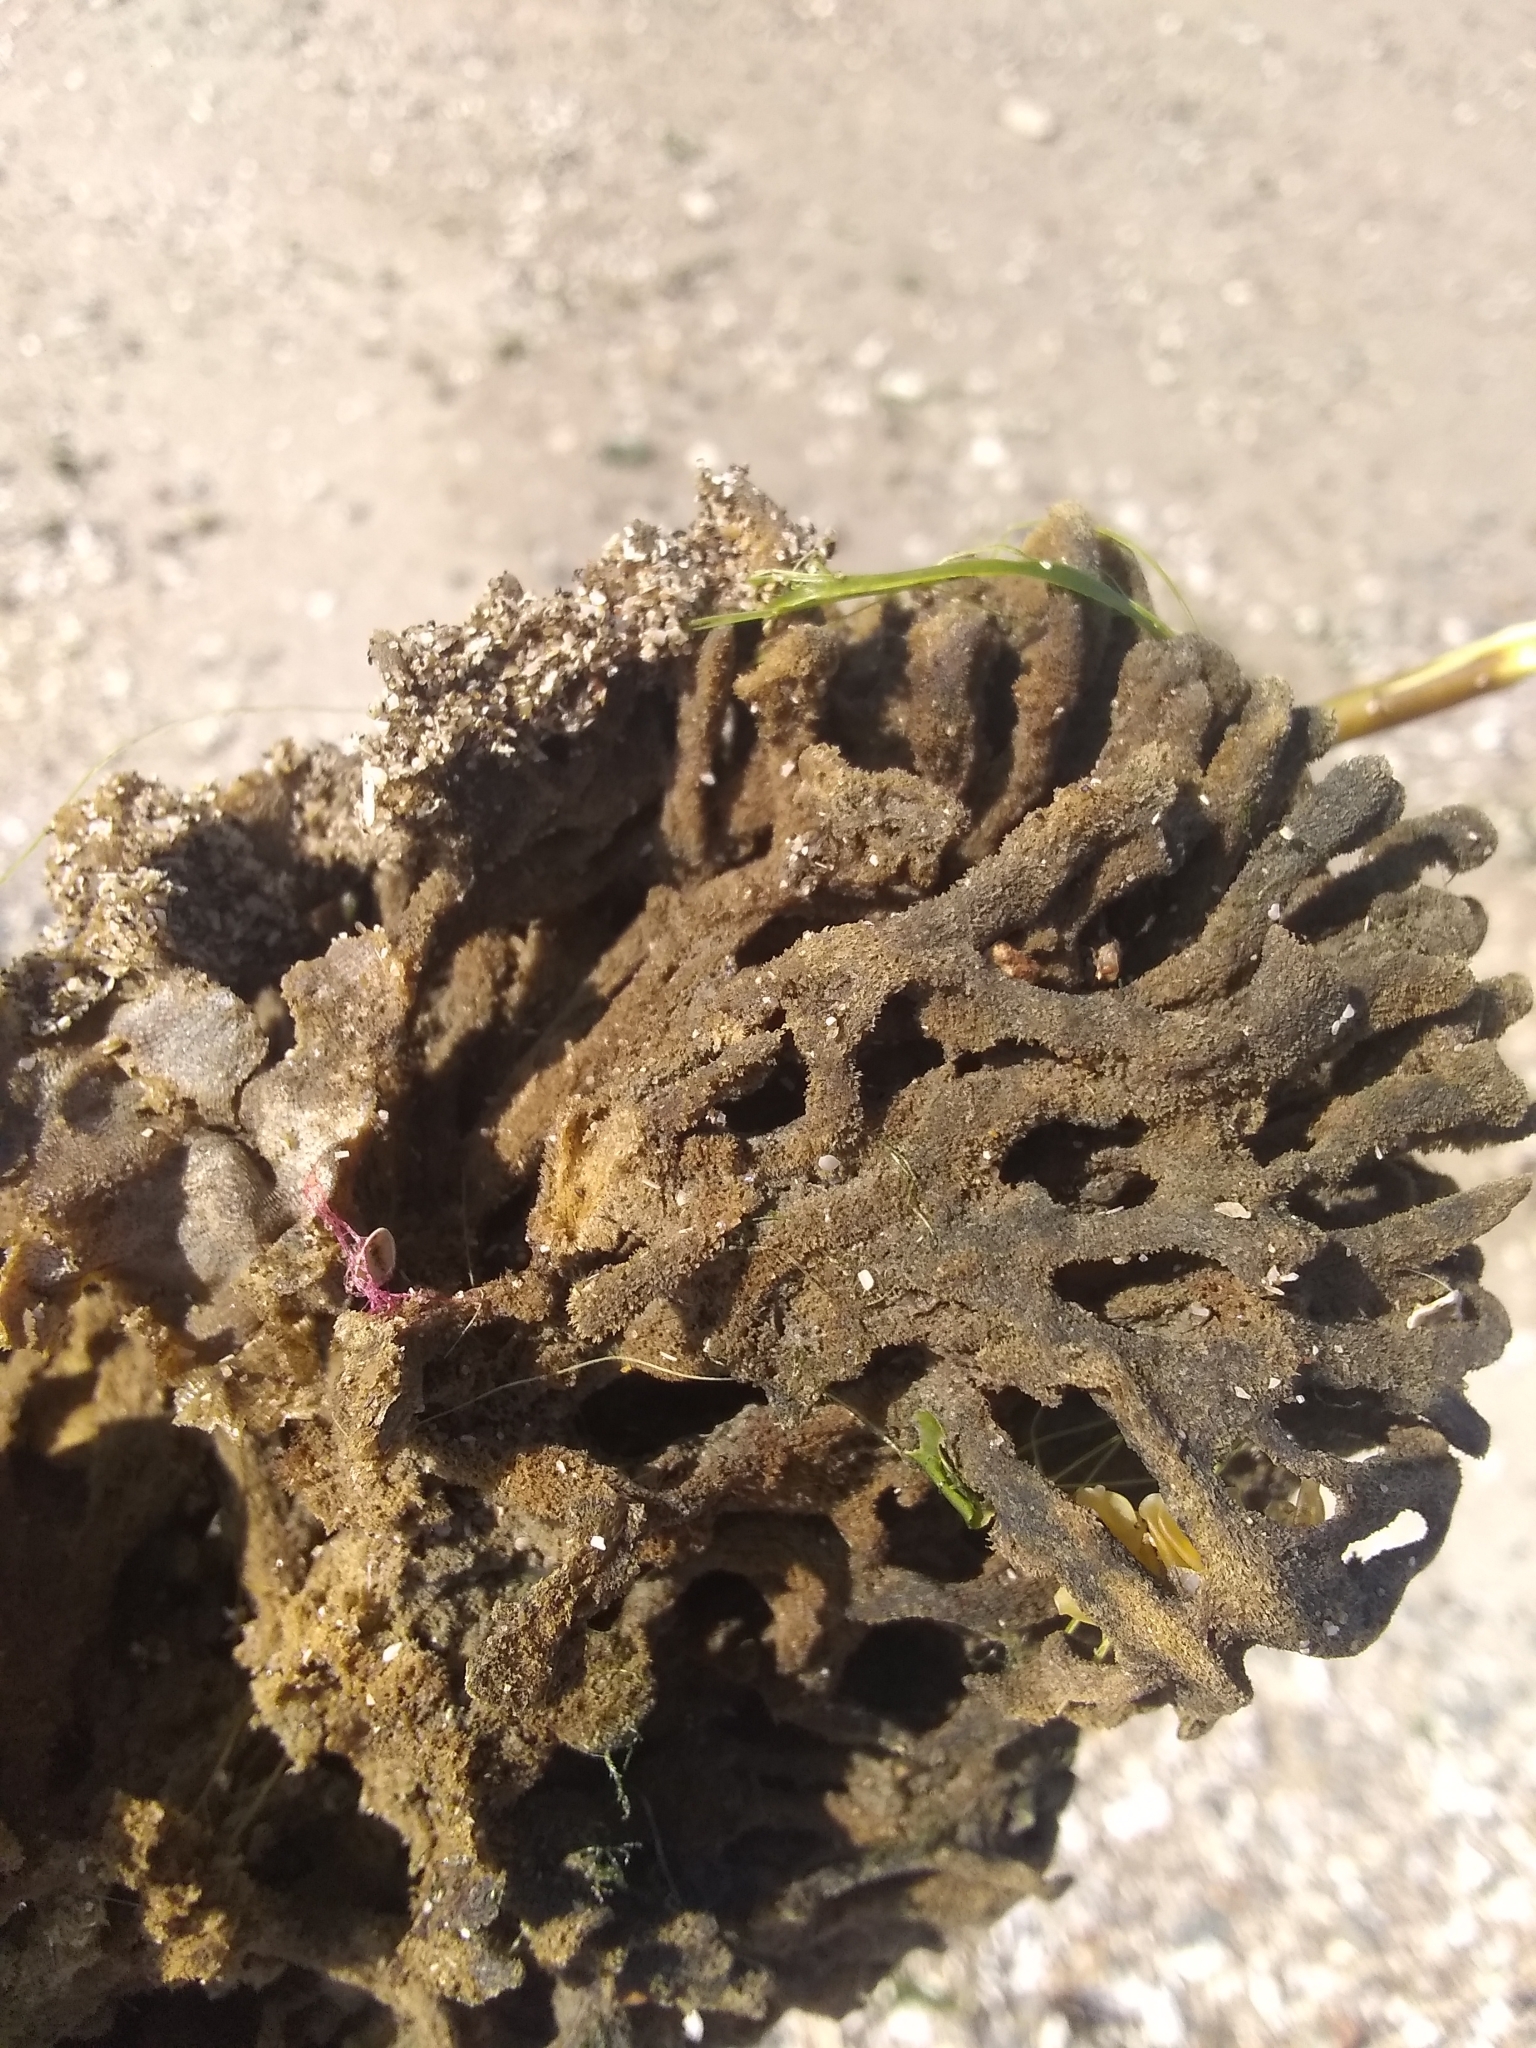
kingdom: Animalia
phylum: Porifera
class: Demospongiae
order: Poecilosclerida
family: Microcionidae
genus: Clathria
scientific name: Clathria prolifera
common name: Red beard sponge
